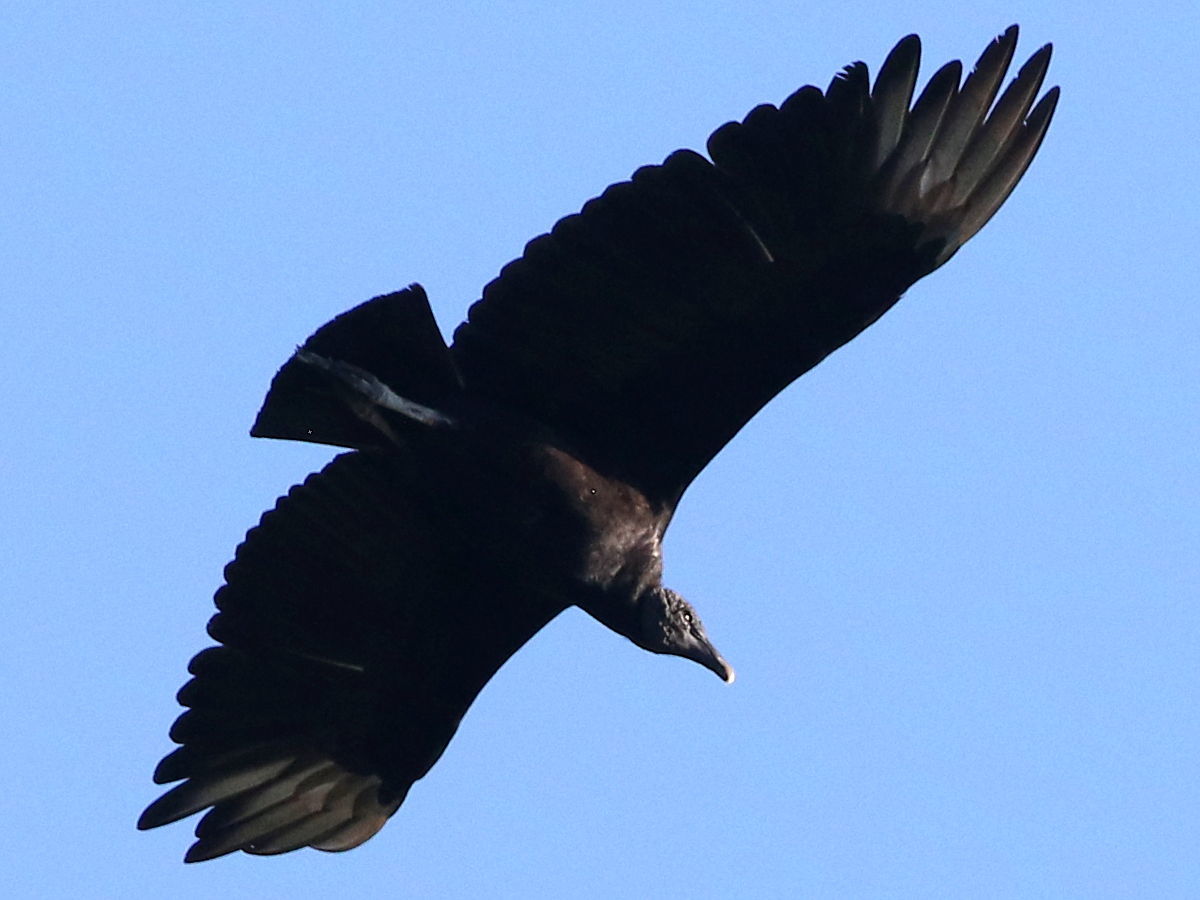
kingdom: Animalia
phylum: Chordata
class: Aves
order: Accipitriformes
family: Cathartidae
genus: Coragyps
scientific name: Coragyps atratus
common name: Black vulture
